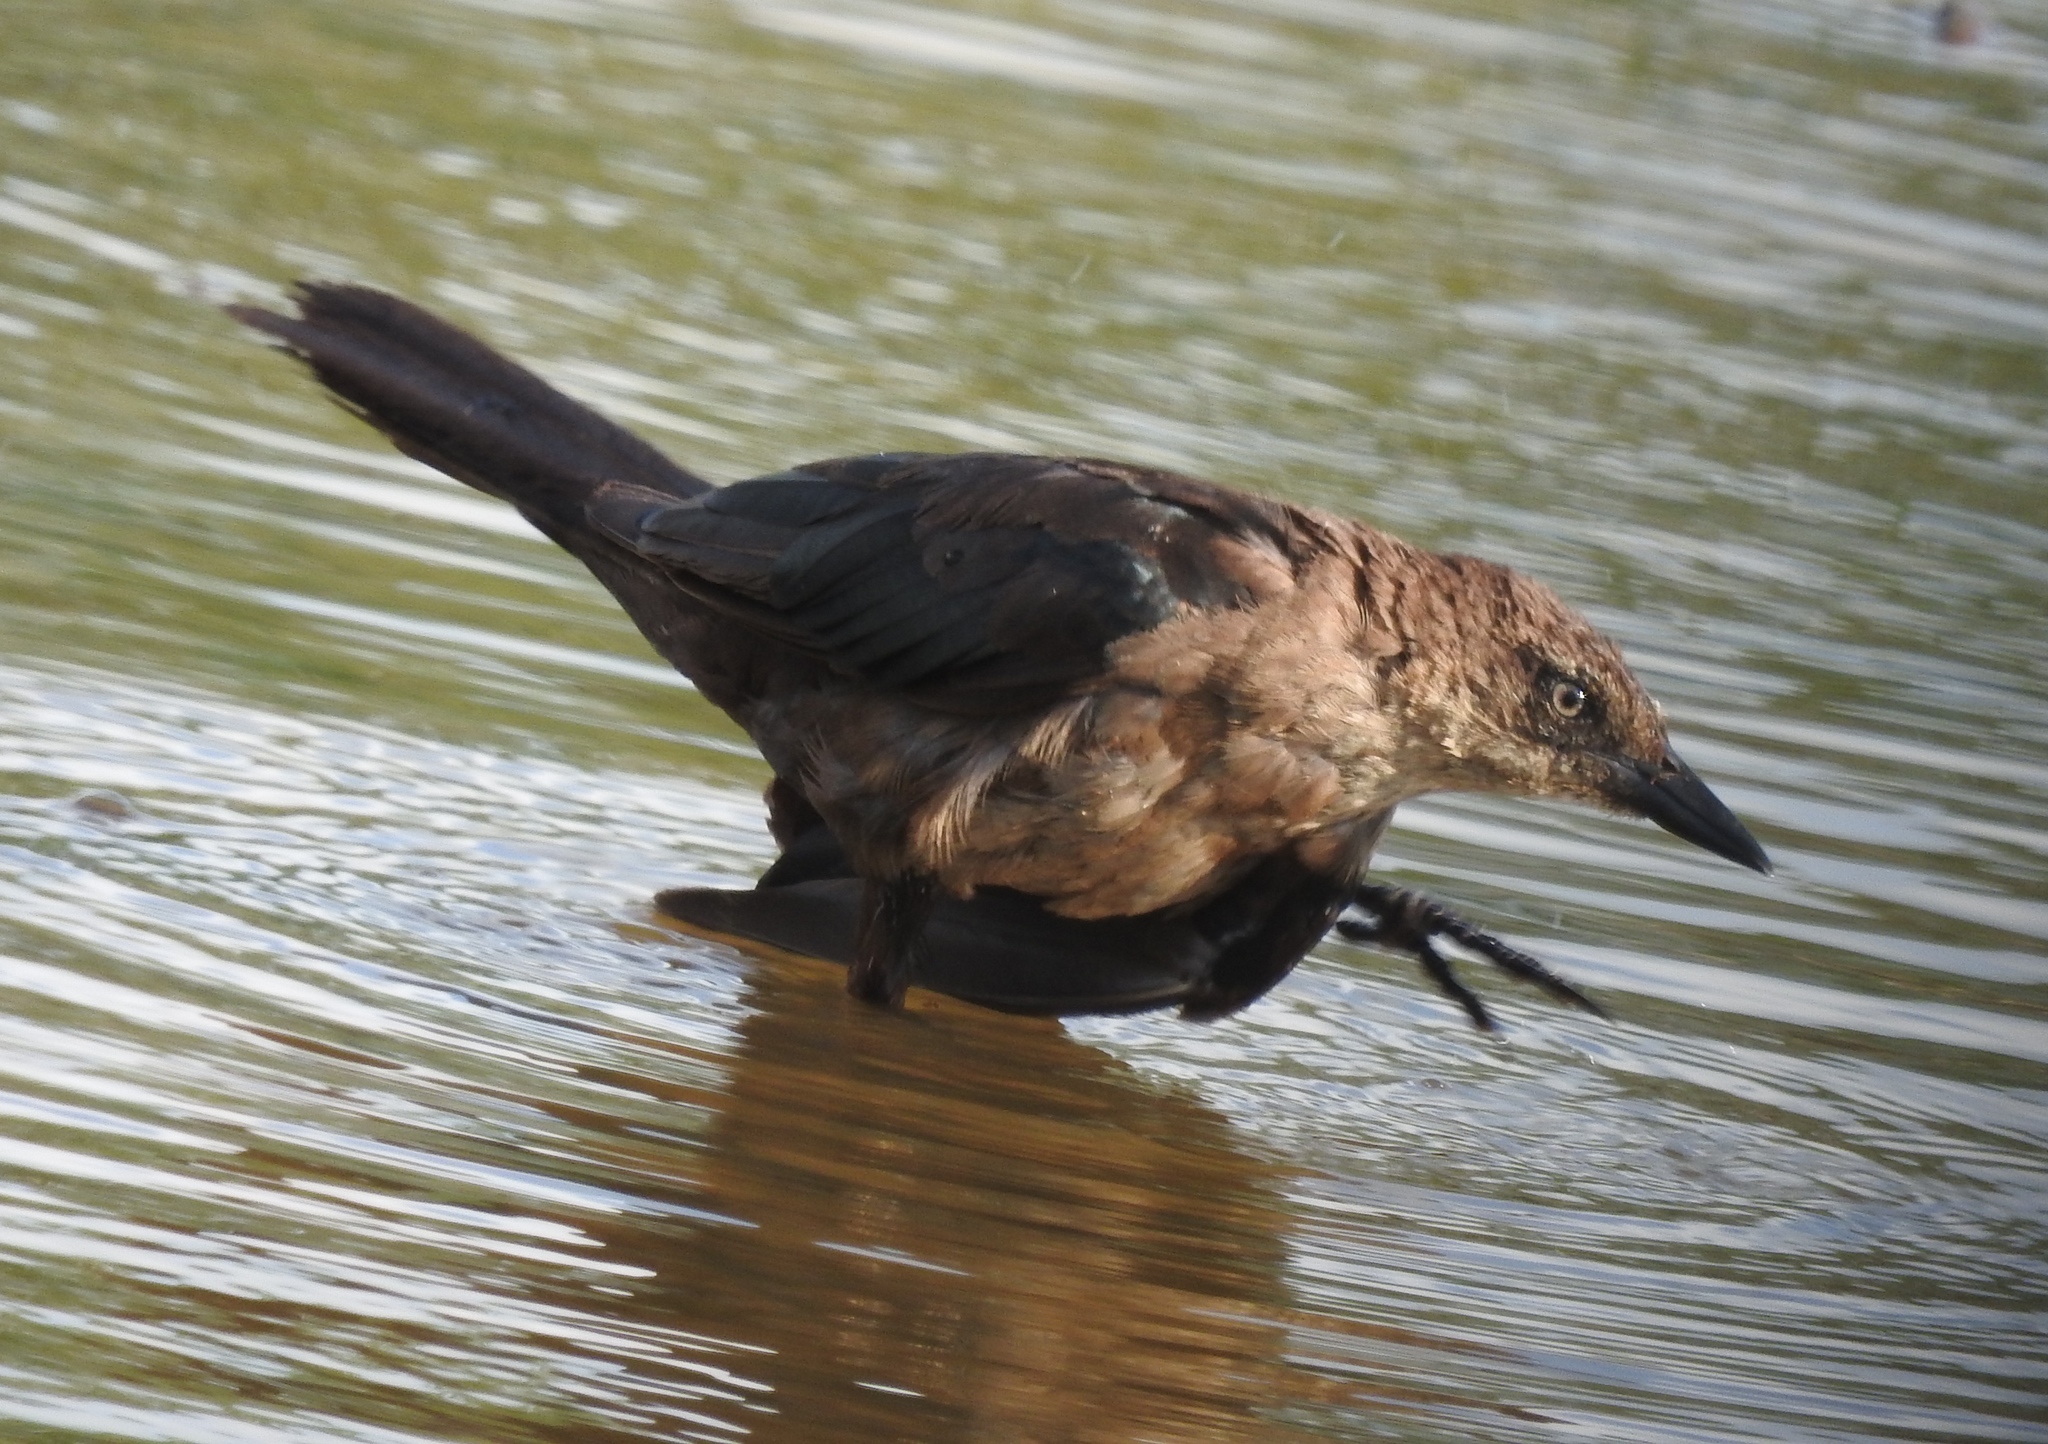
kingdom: Animalia
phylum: Chordata
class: Aves
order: Passeriformes
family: Icteridae
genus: Quiscalus
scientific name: Quiscalus mexicanus
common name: Great-tailed grackle
